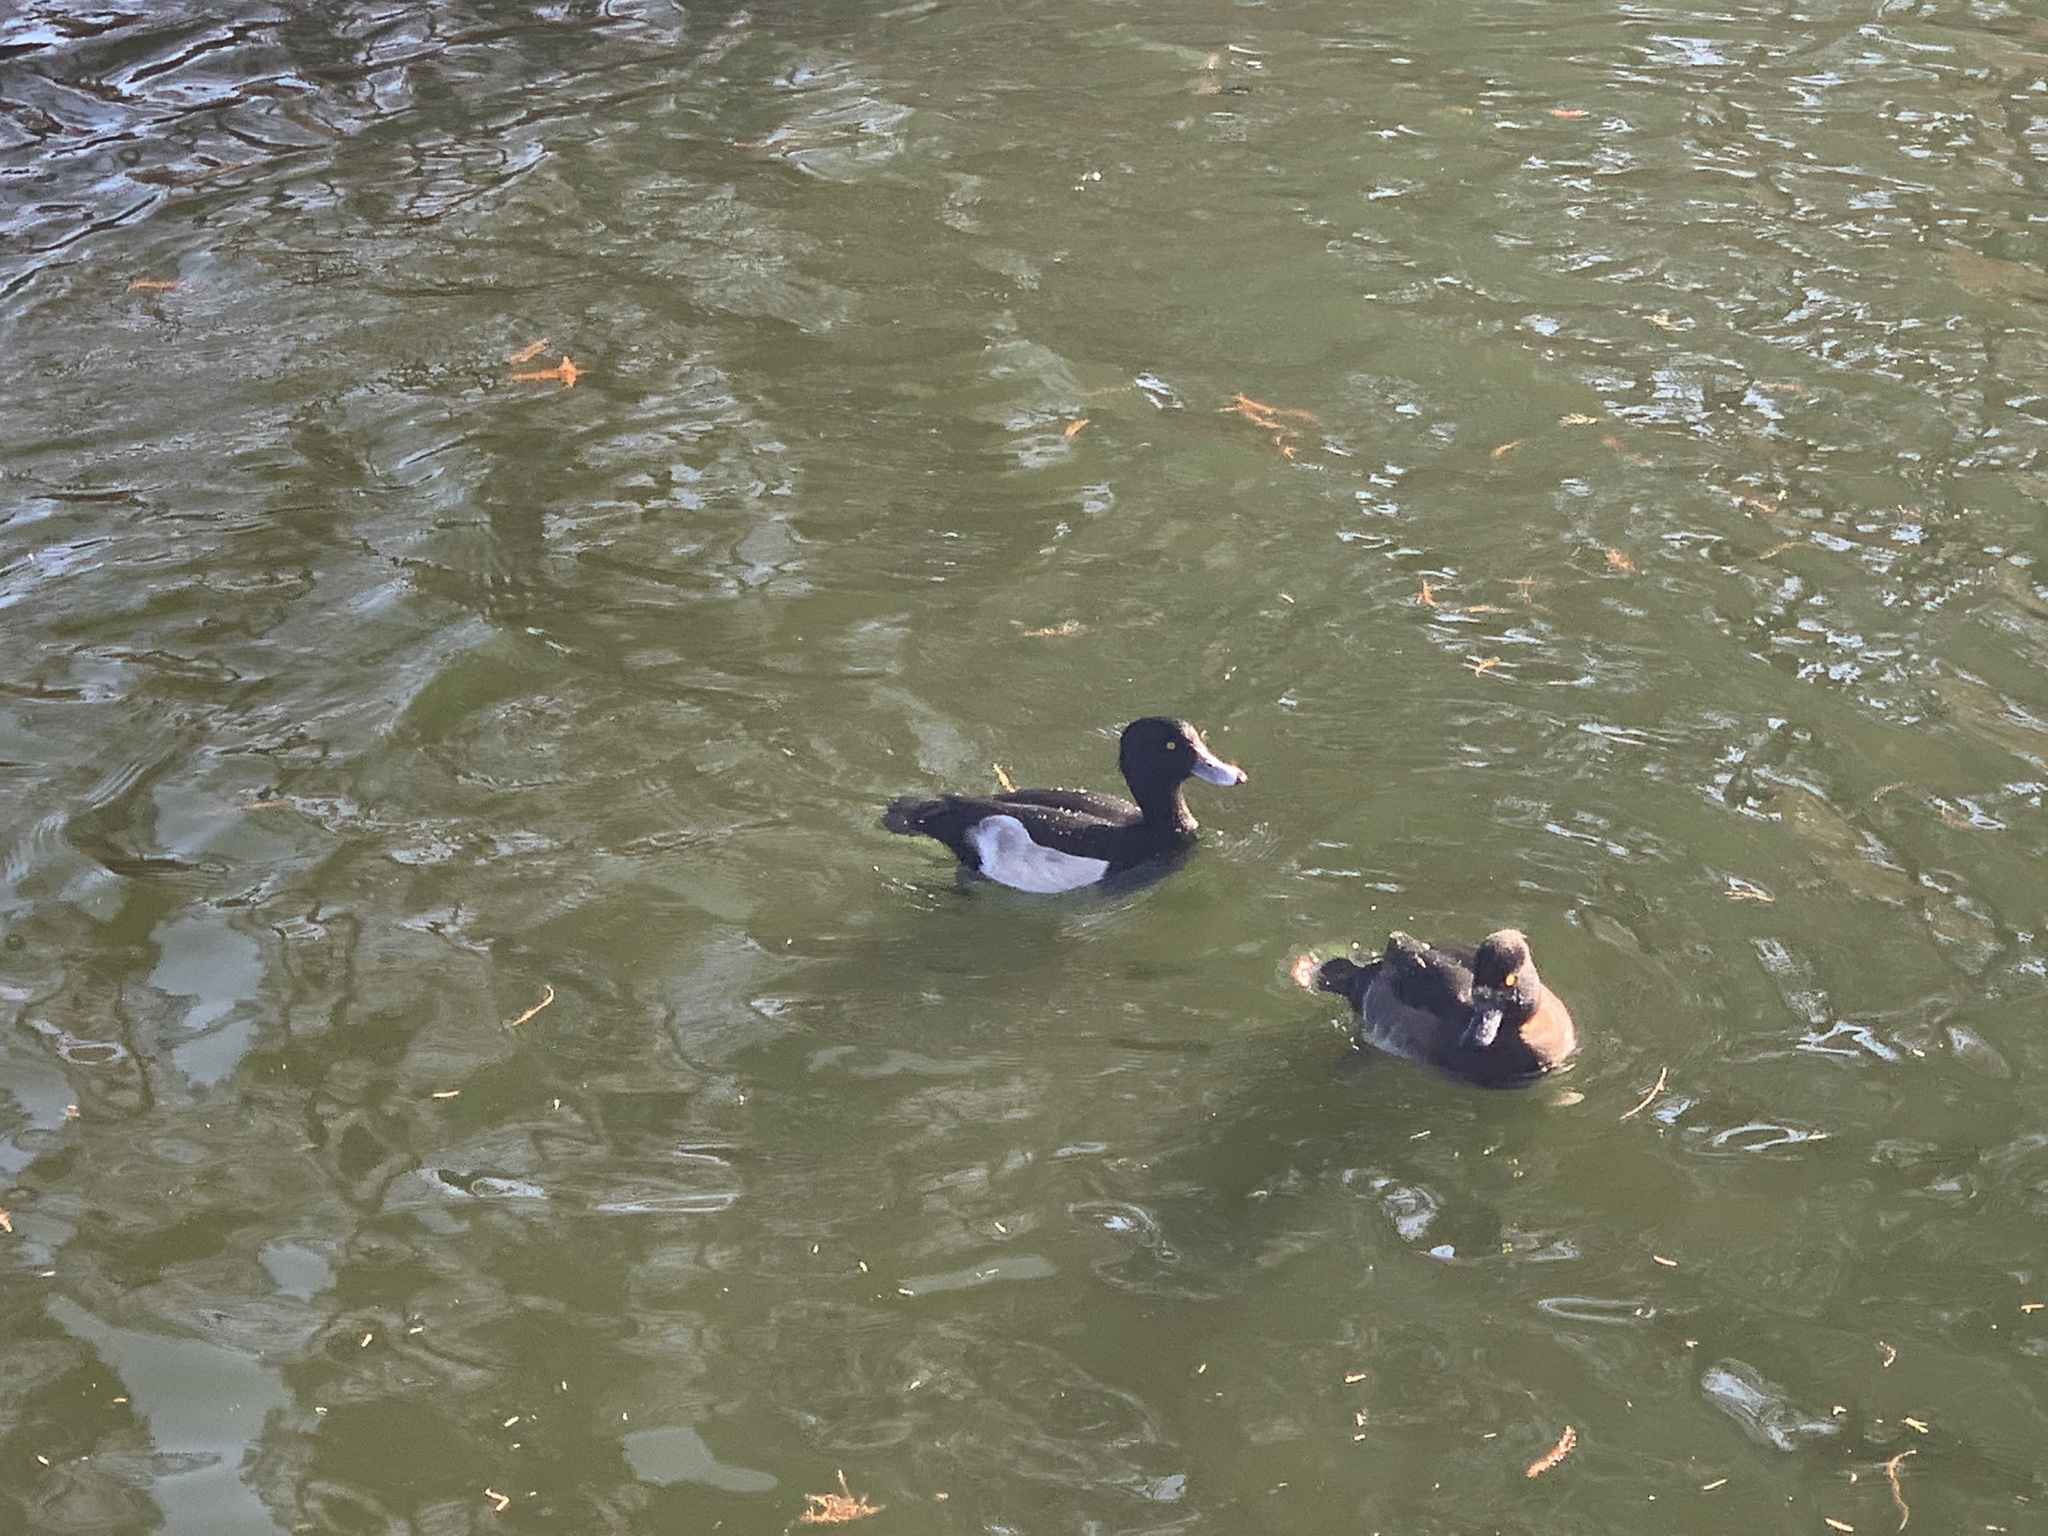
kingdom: Animalia
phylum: Chordata
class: Aves
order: Anseriformes
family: Anatidae
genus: Aythya
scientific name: Aythya fuligula
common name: Tufted duck
